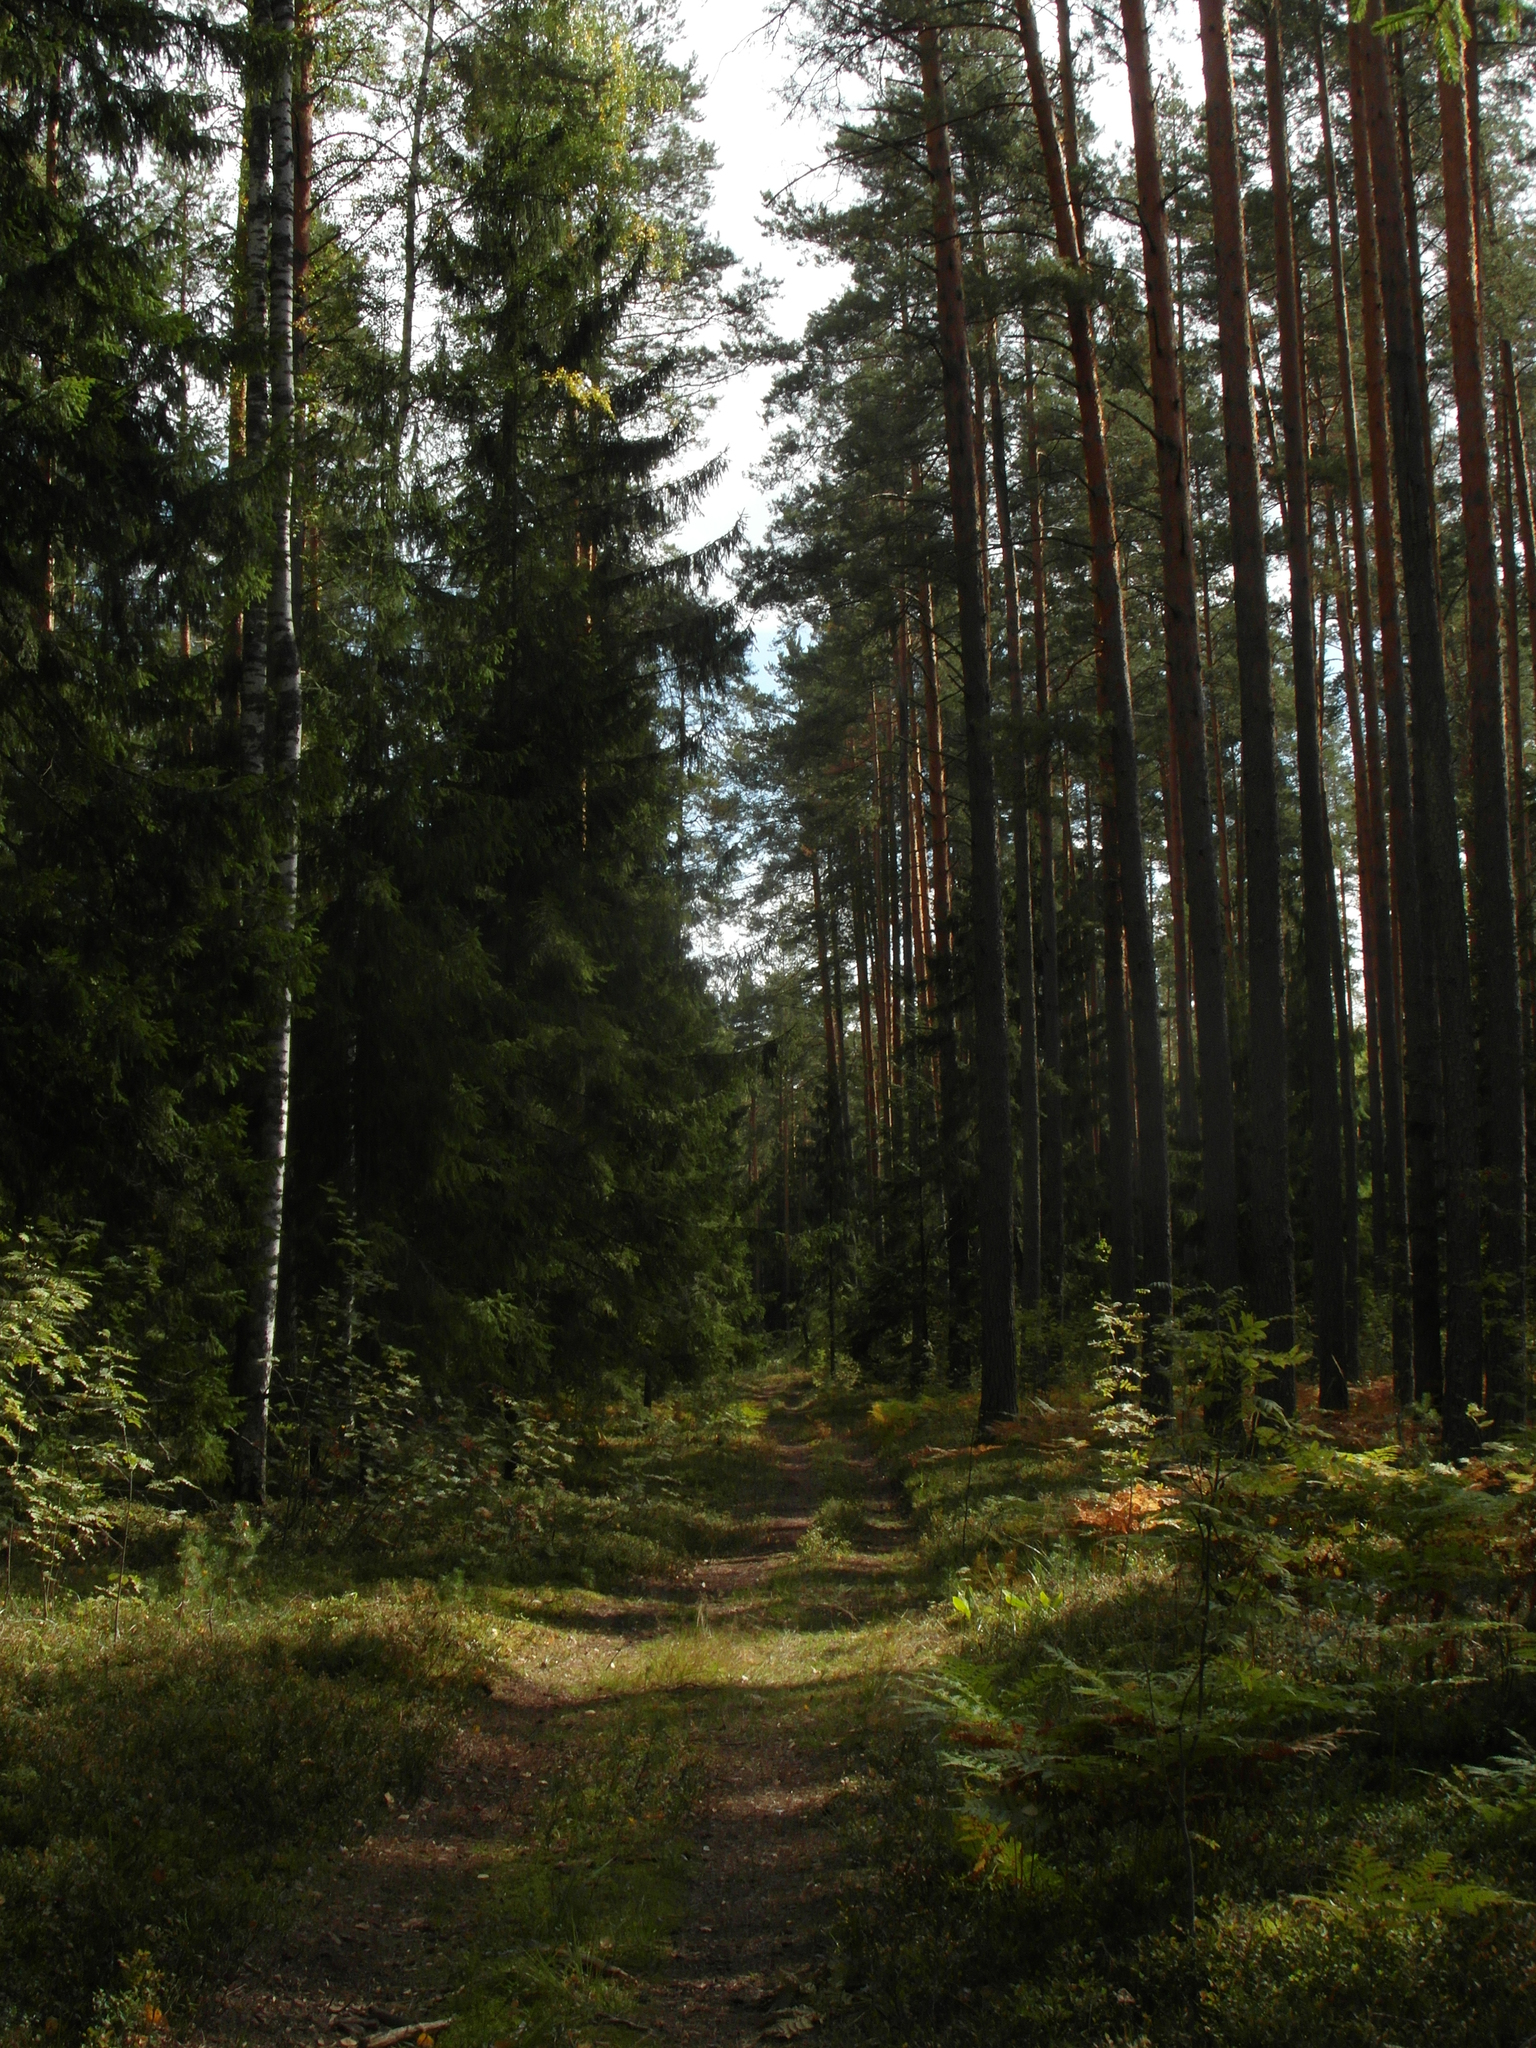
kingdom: Plantae
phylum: Tracheophyta
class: Pinopsida
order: Pinales
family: Pinaceae
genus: Pinus
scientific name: Pinus sylvestris
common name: Scots pine
